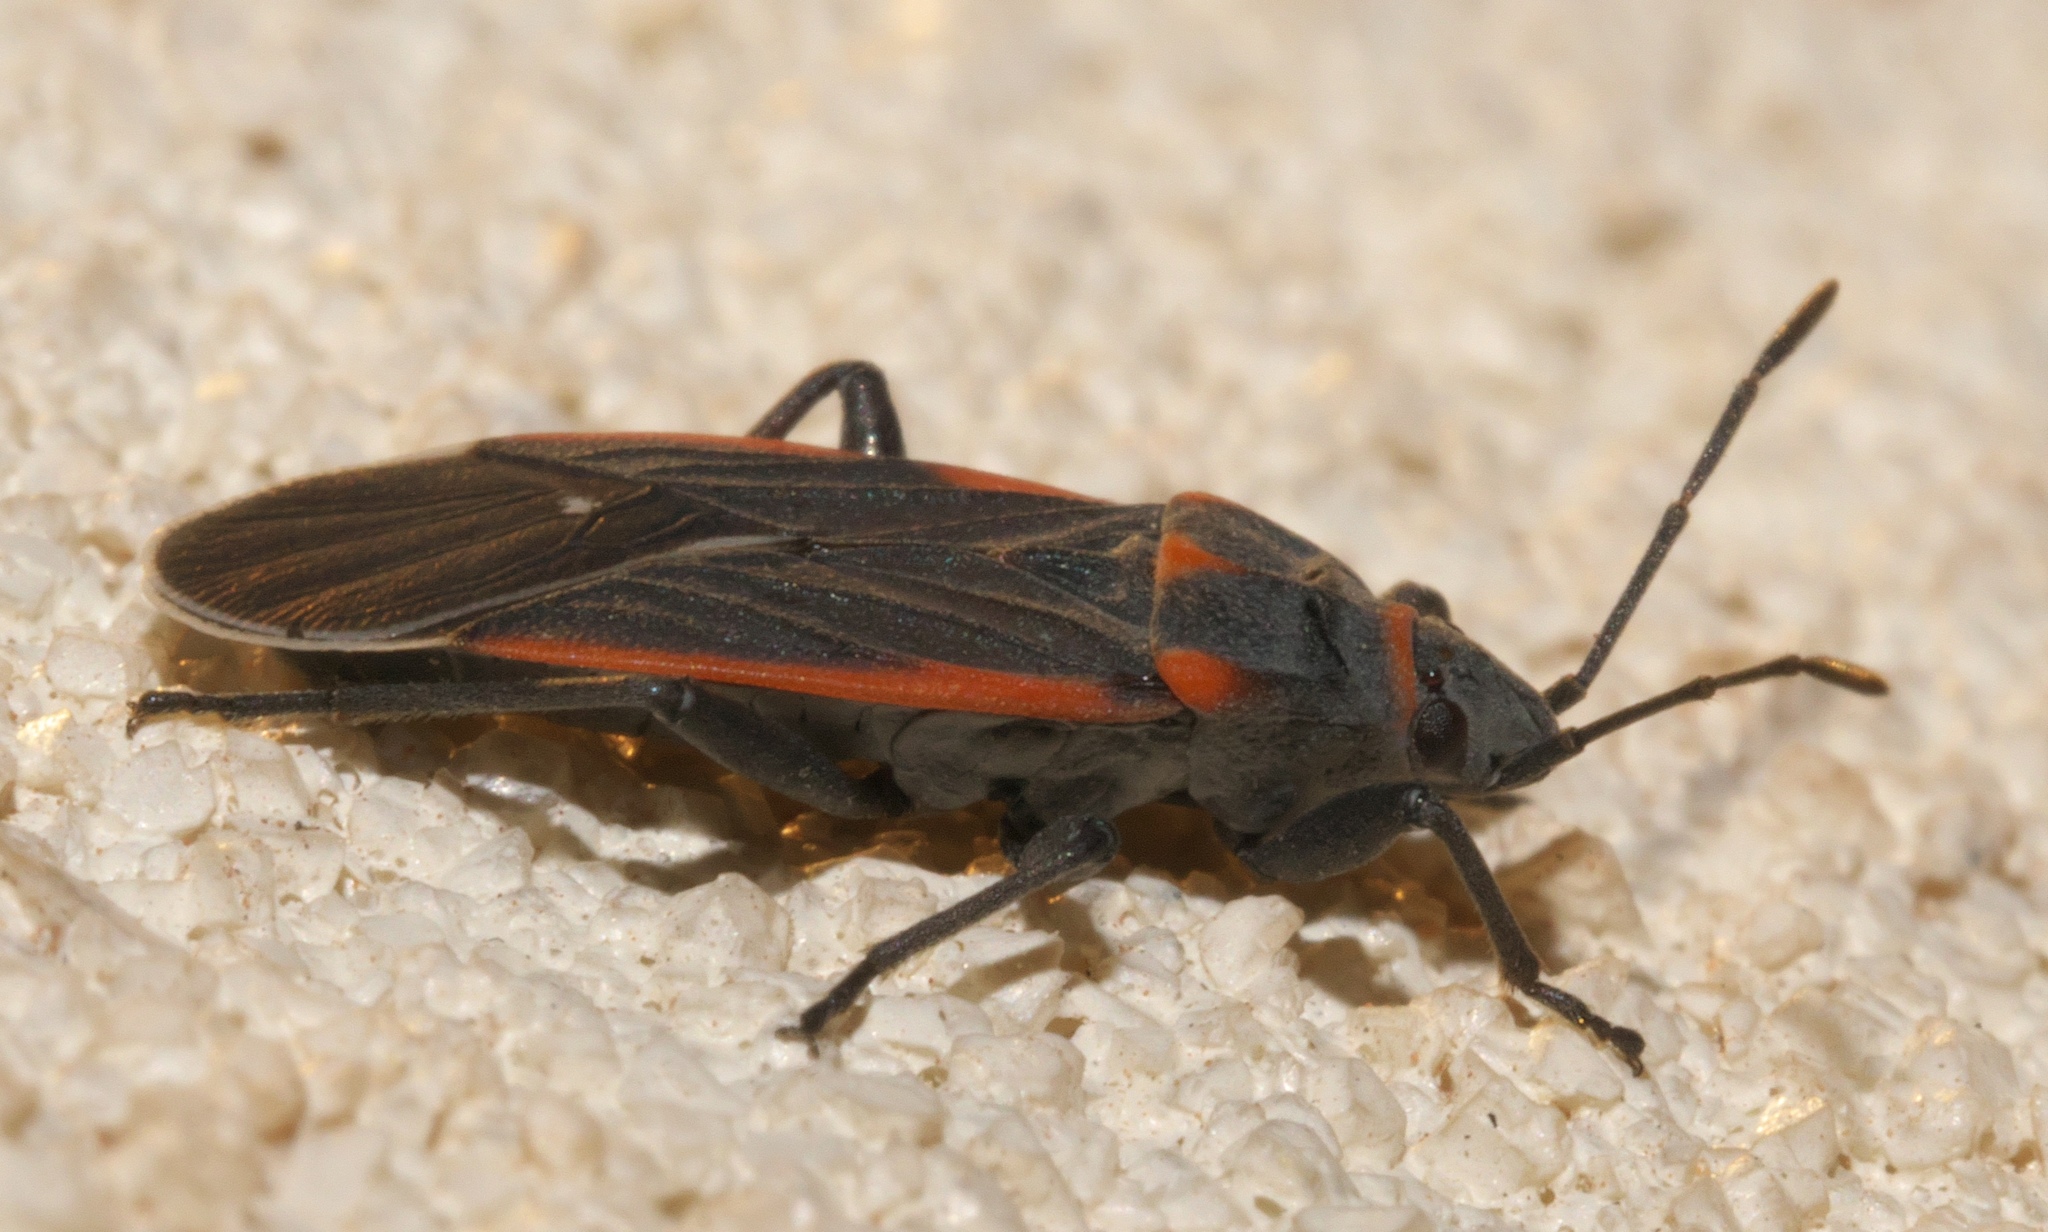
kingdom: Animalia
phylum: Arthropoda
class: Insecta
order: Hemiptera
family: Lygaeidae
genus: Melacoryphus
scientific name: Melacoryphus lateralis
